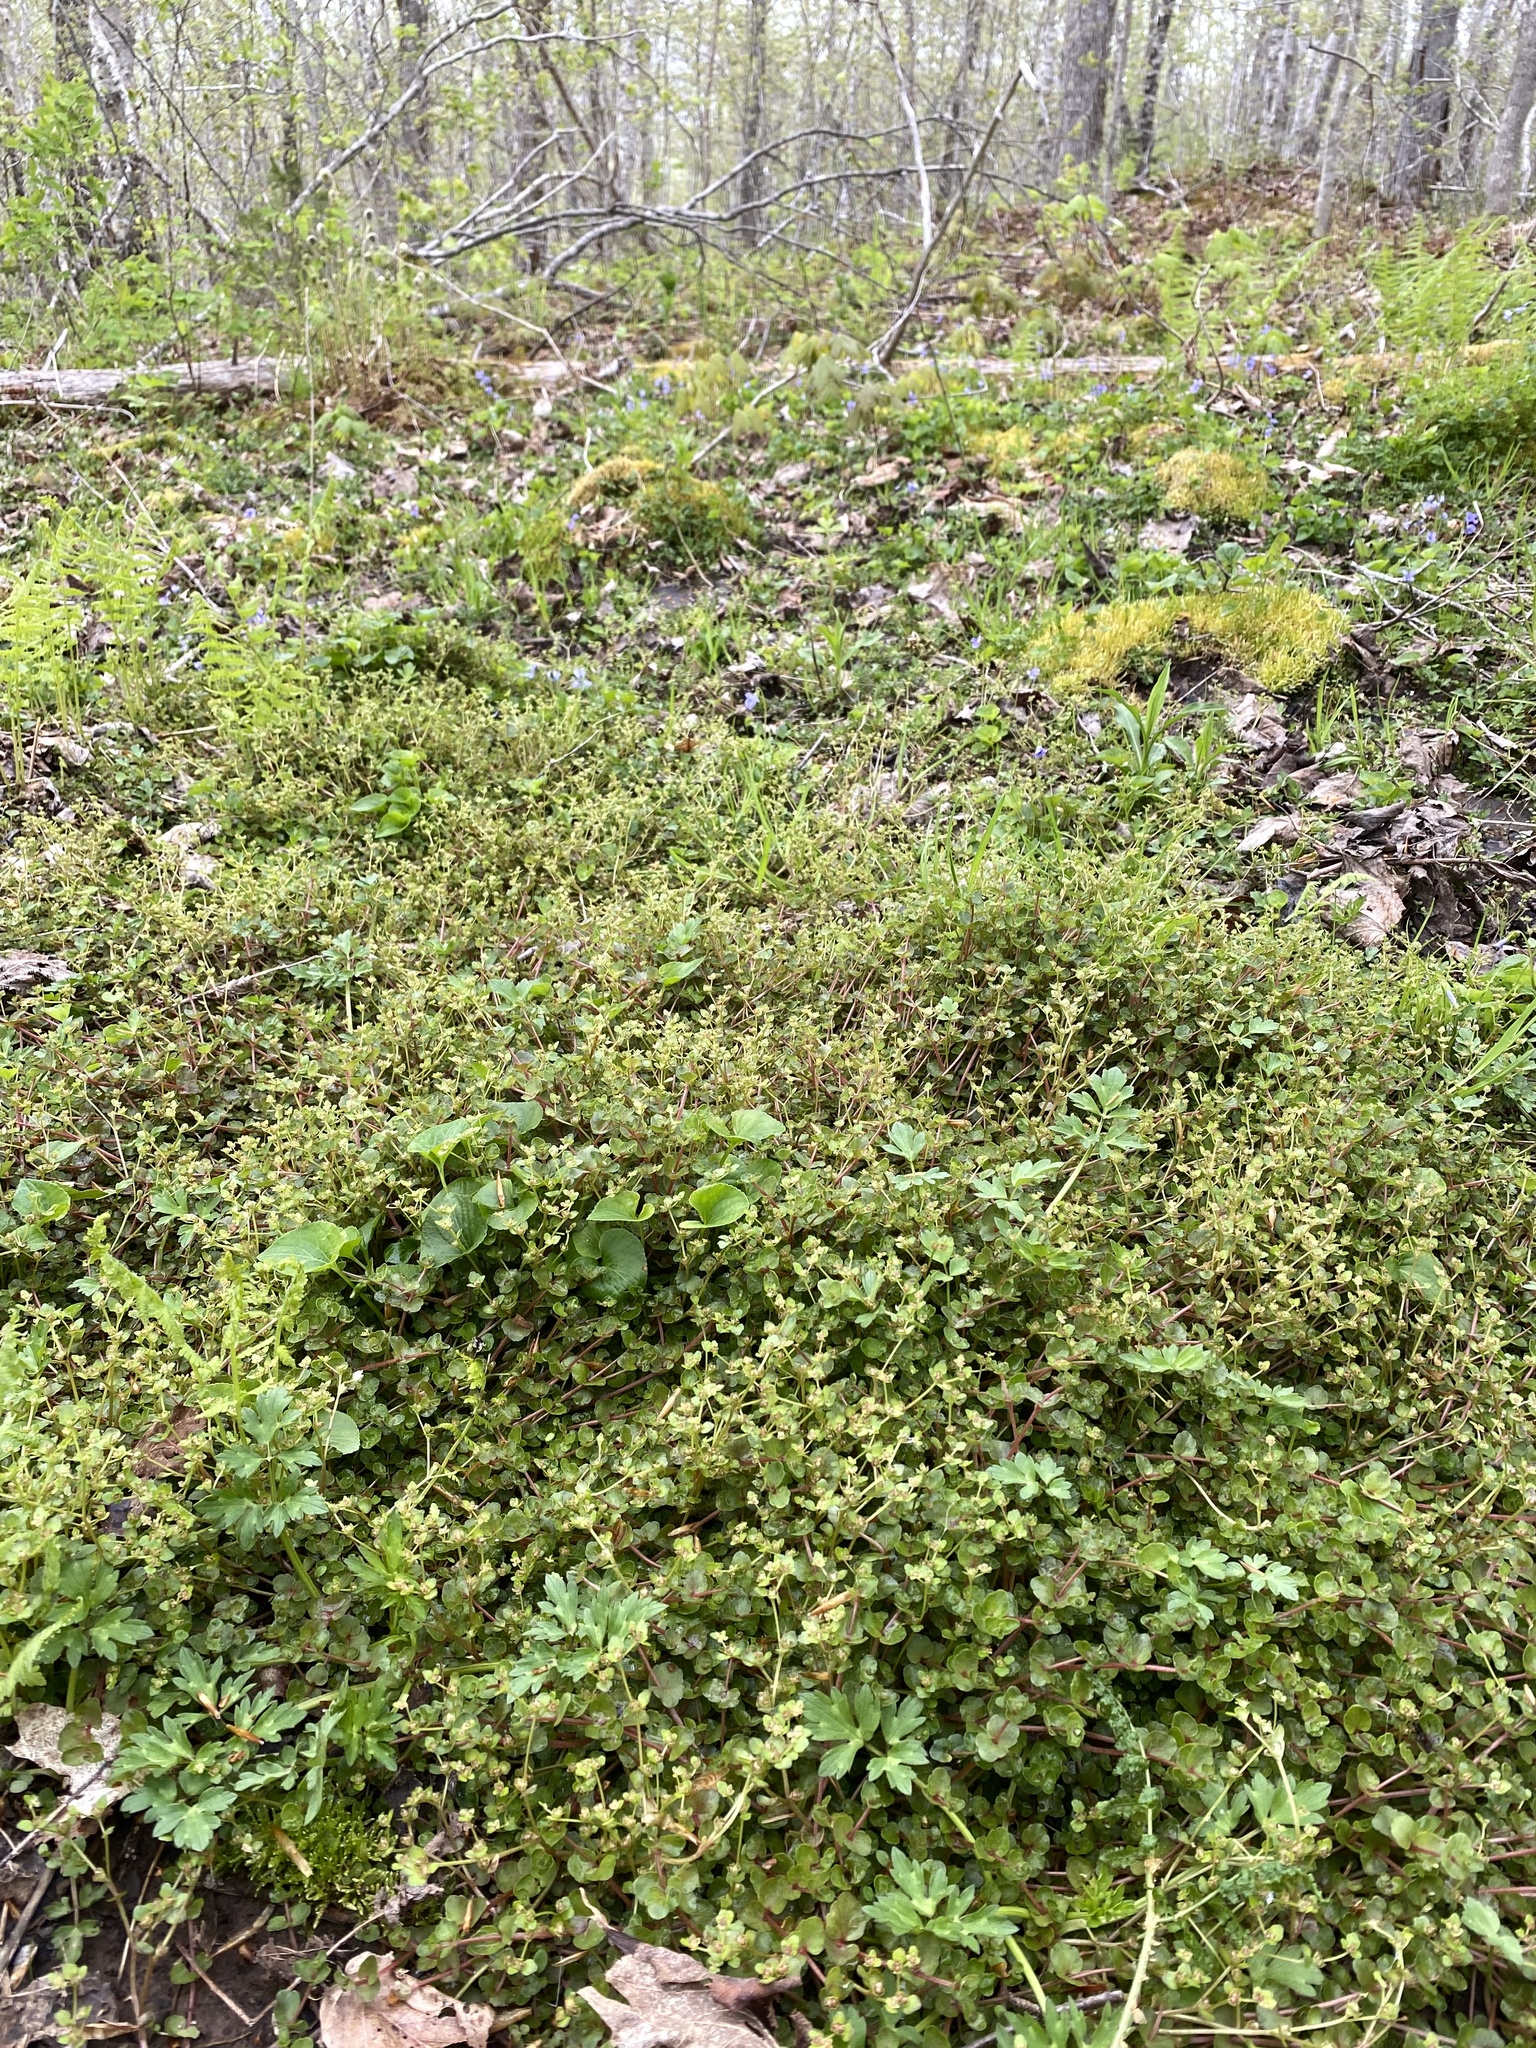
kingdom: Plantae
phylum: Tracheophyta
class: Magnoliopsida
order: Saxifragales
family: Saxifragaceae
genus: Chrysosplenium
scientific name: Chrysosplenium americanum
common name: American golden-saxifrage
